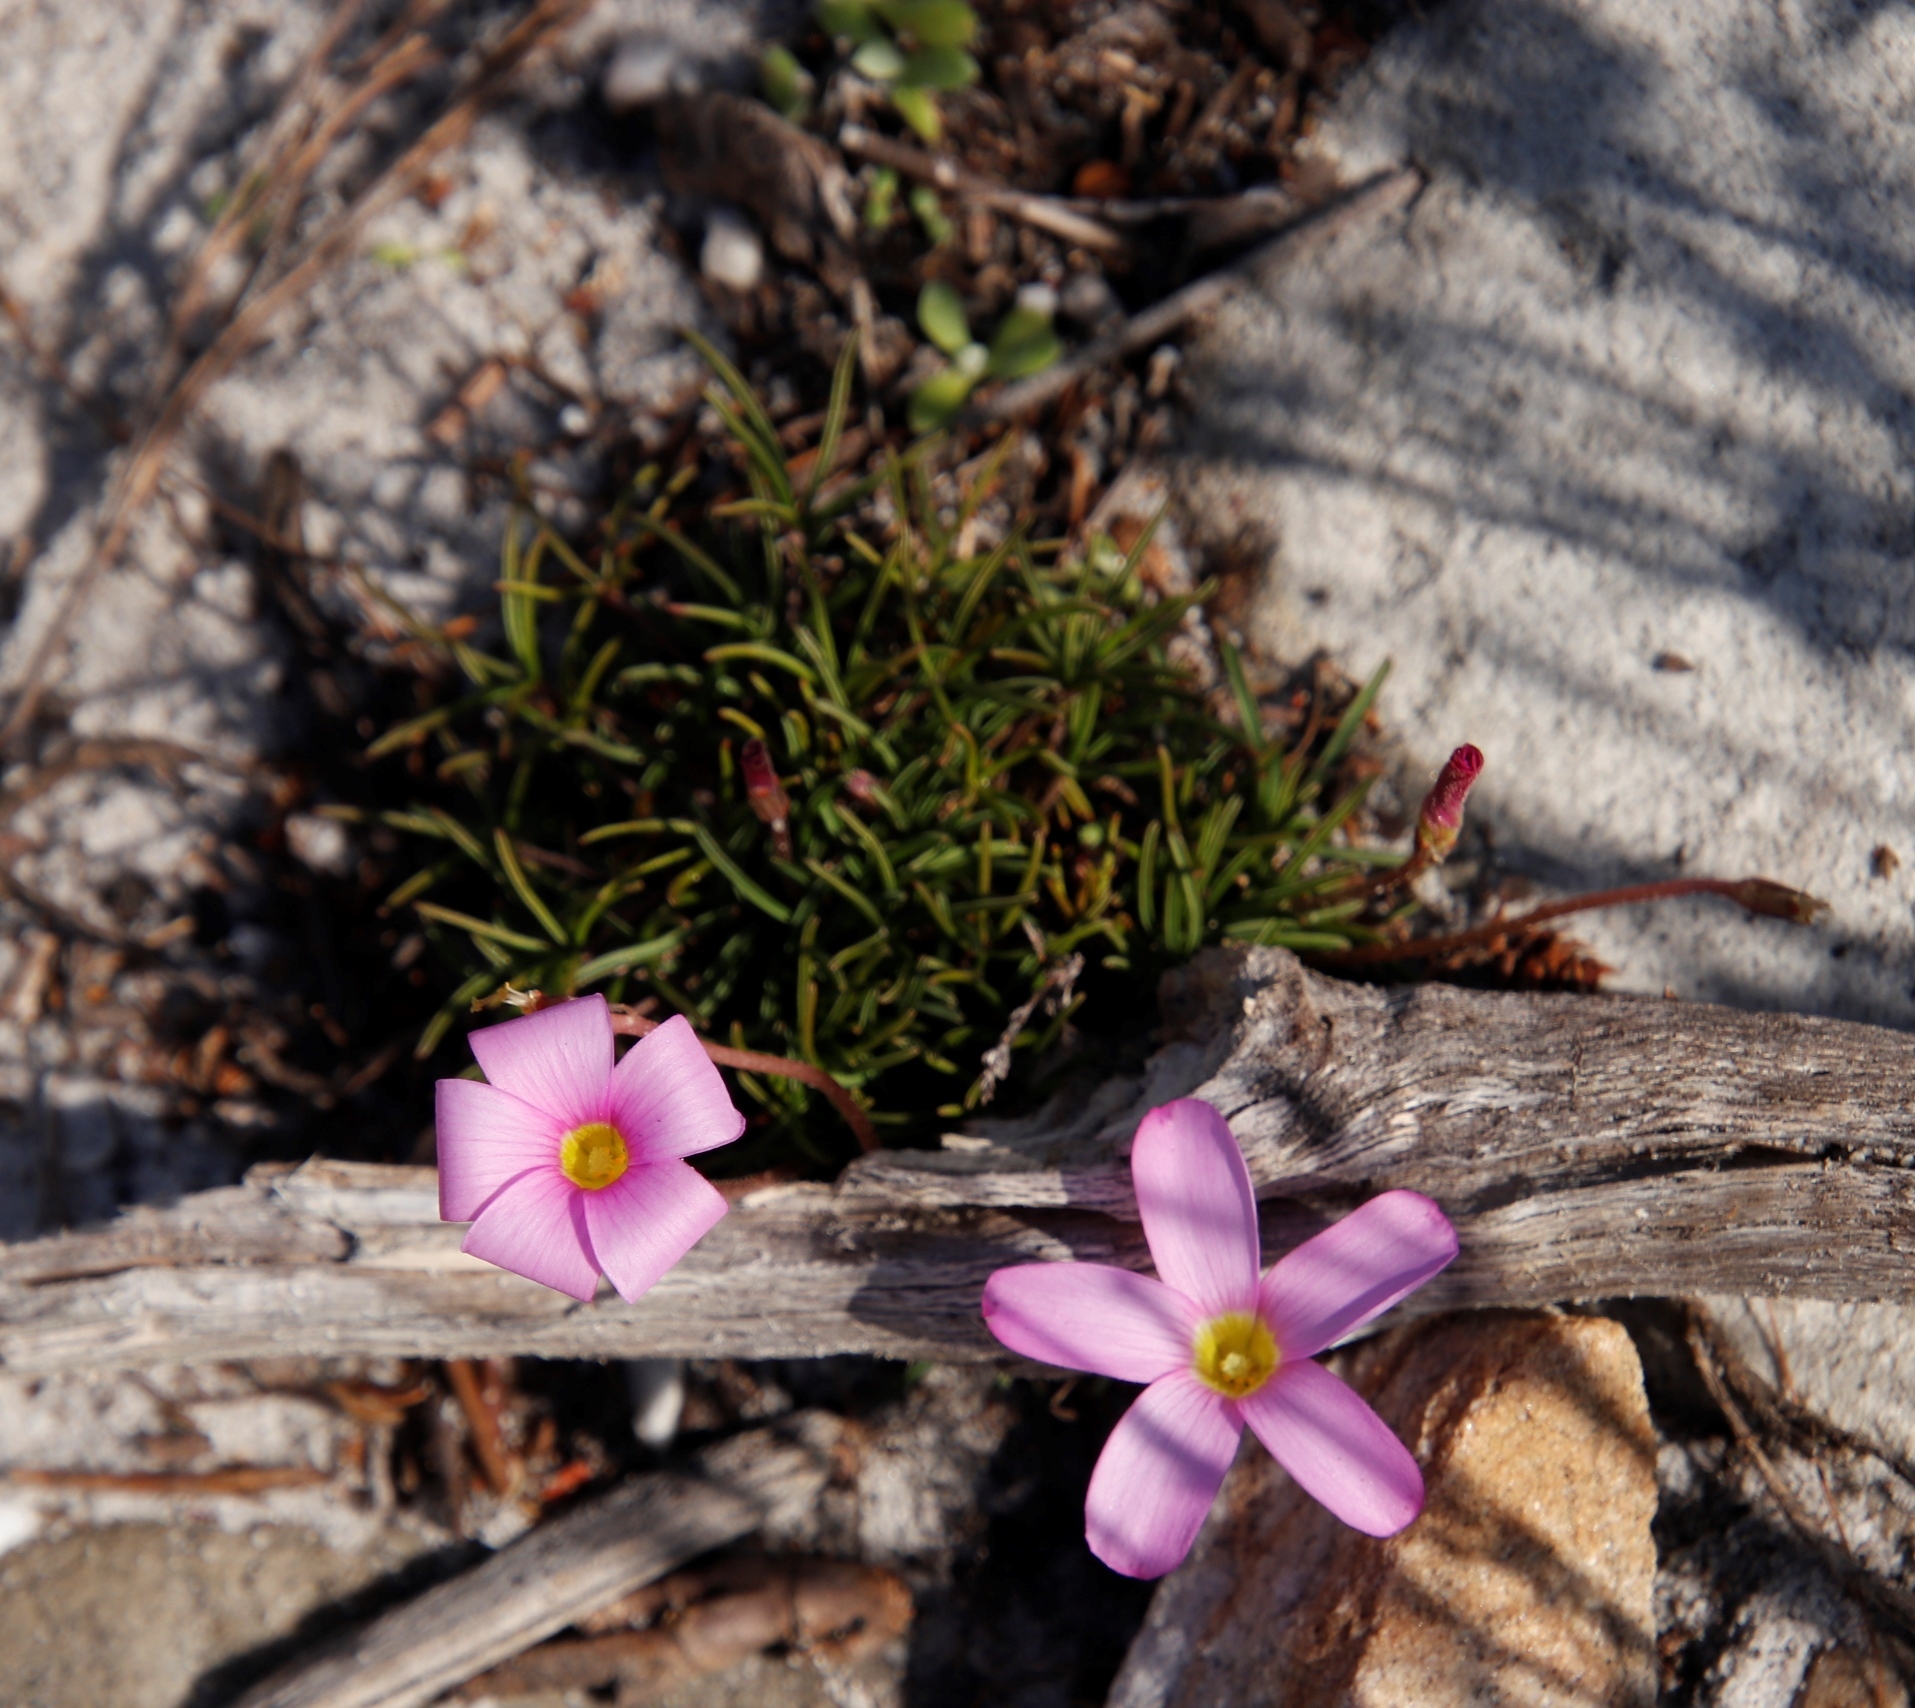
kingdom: Plantae
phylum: Tracheophyta
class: Magnoliopsida
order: Oxalidales
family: Oxalidaceae
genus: Oxalis
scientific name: Oxalis polyphylla
